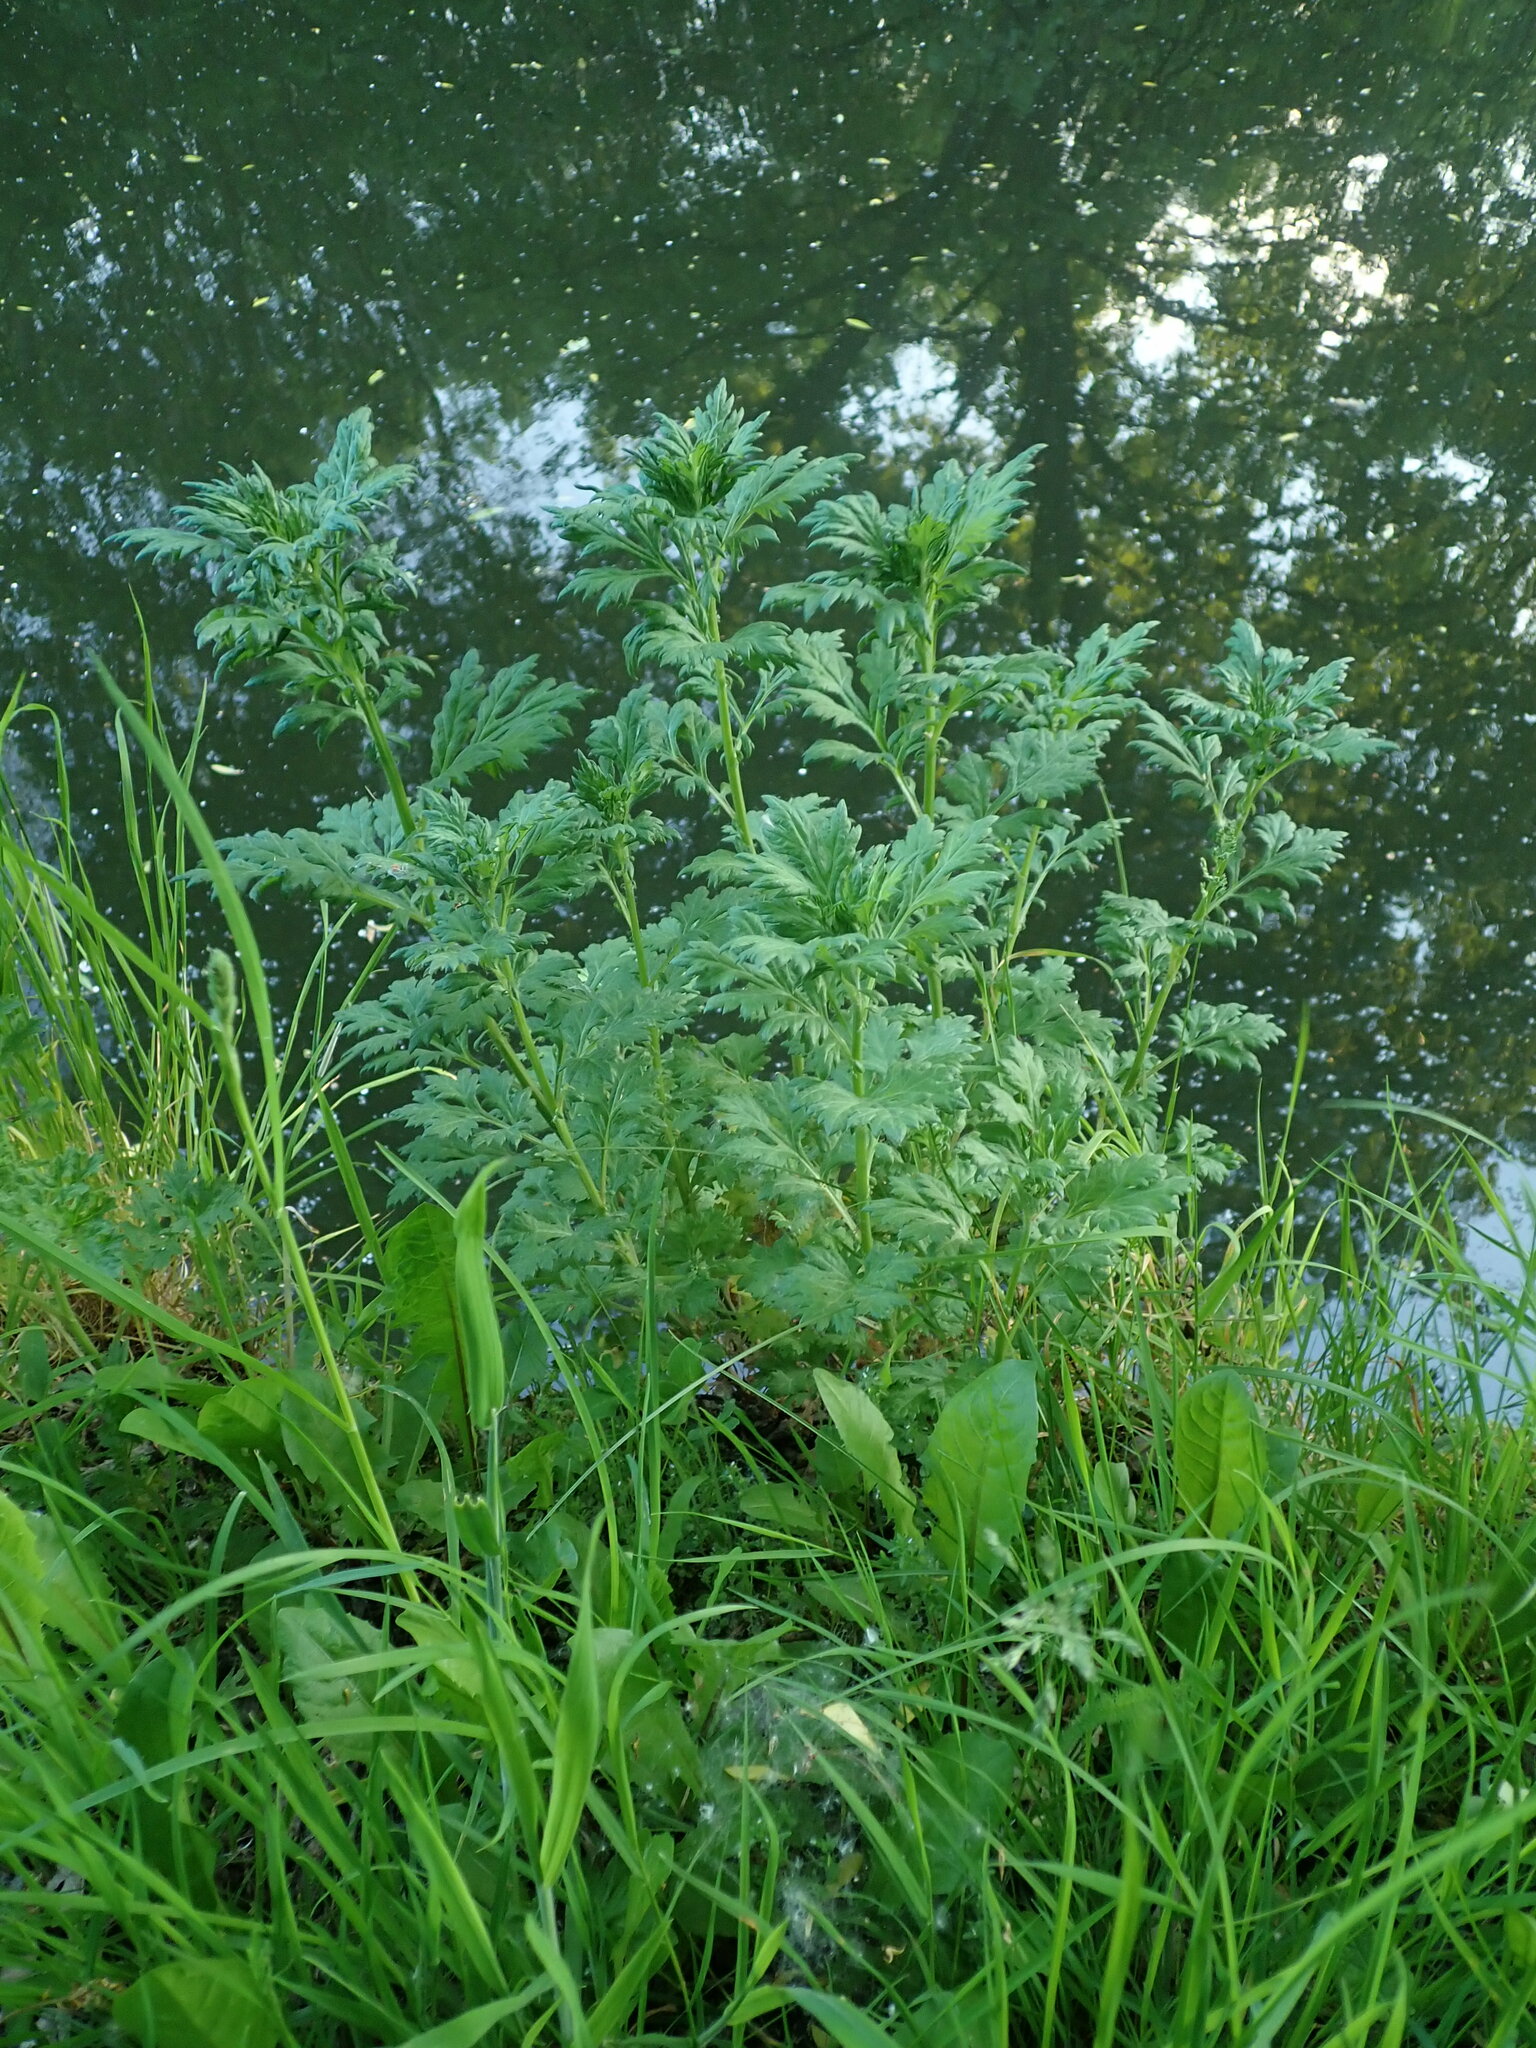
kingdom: Plantae
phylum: Tracheophyta
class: Magnoliopsida
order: Asterales
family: Asteraceae
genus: Artemisia
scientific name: Artemisia vulgaris
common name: Mugwort
